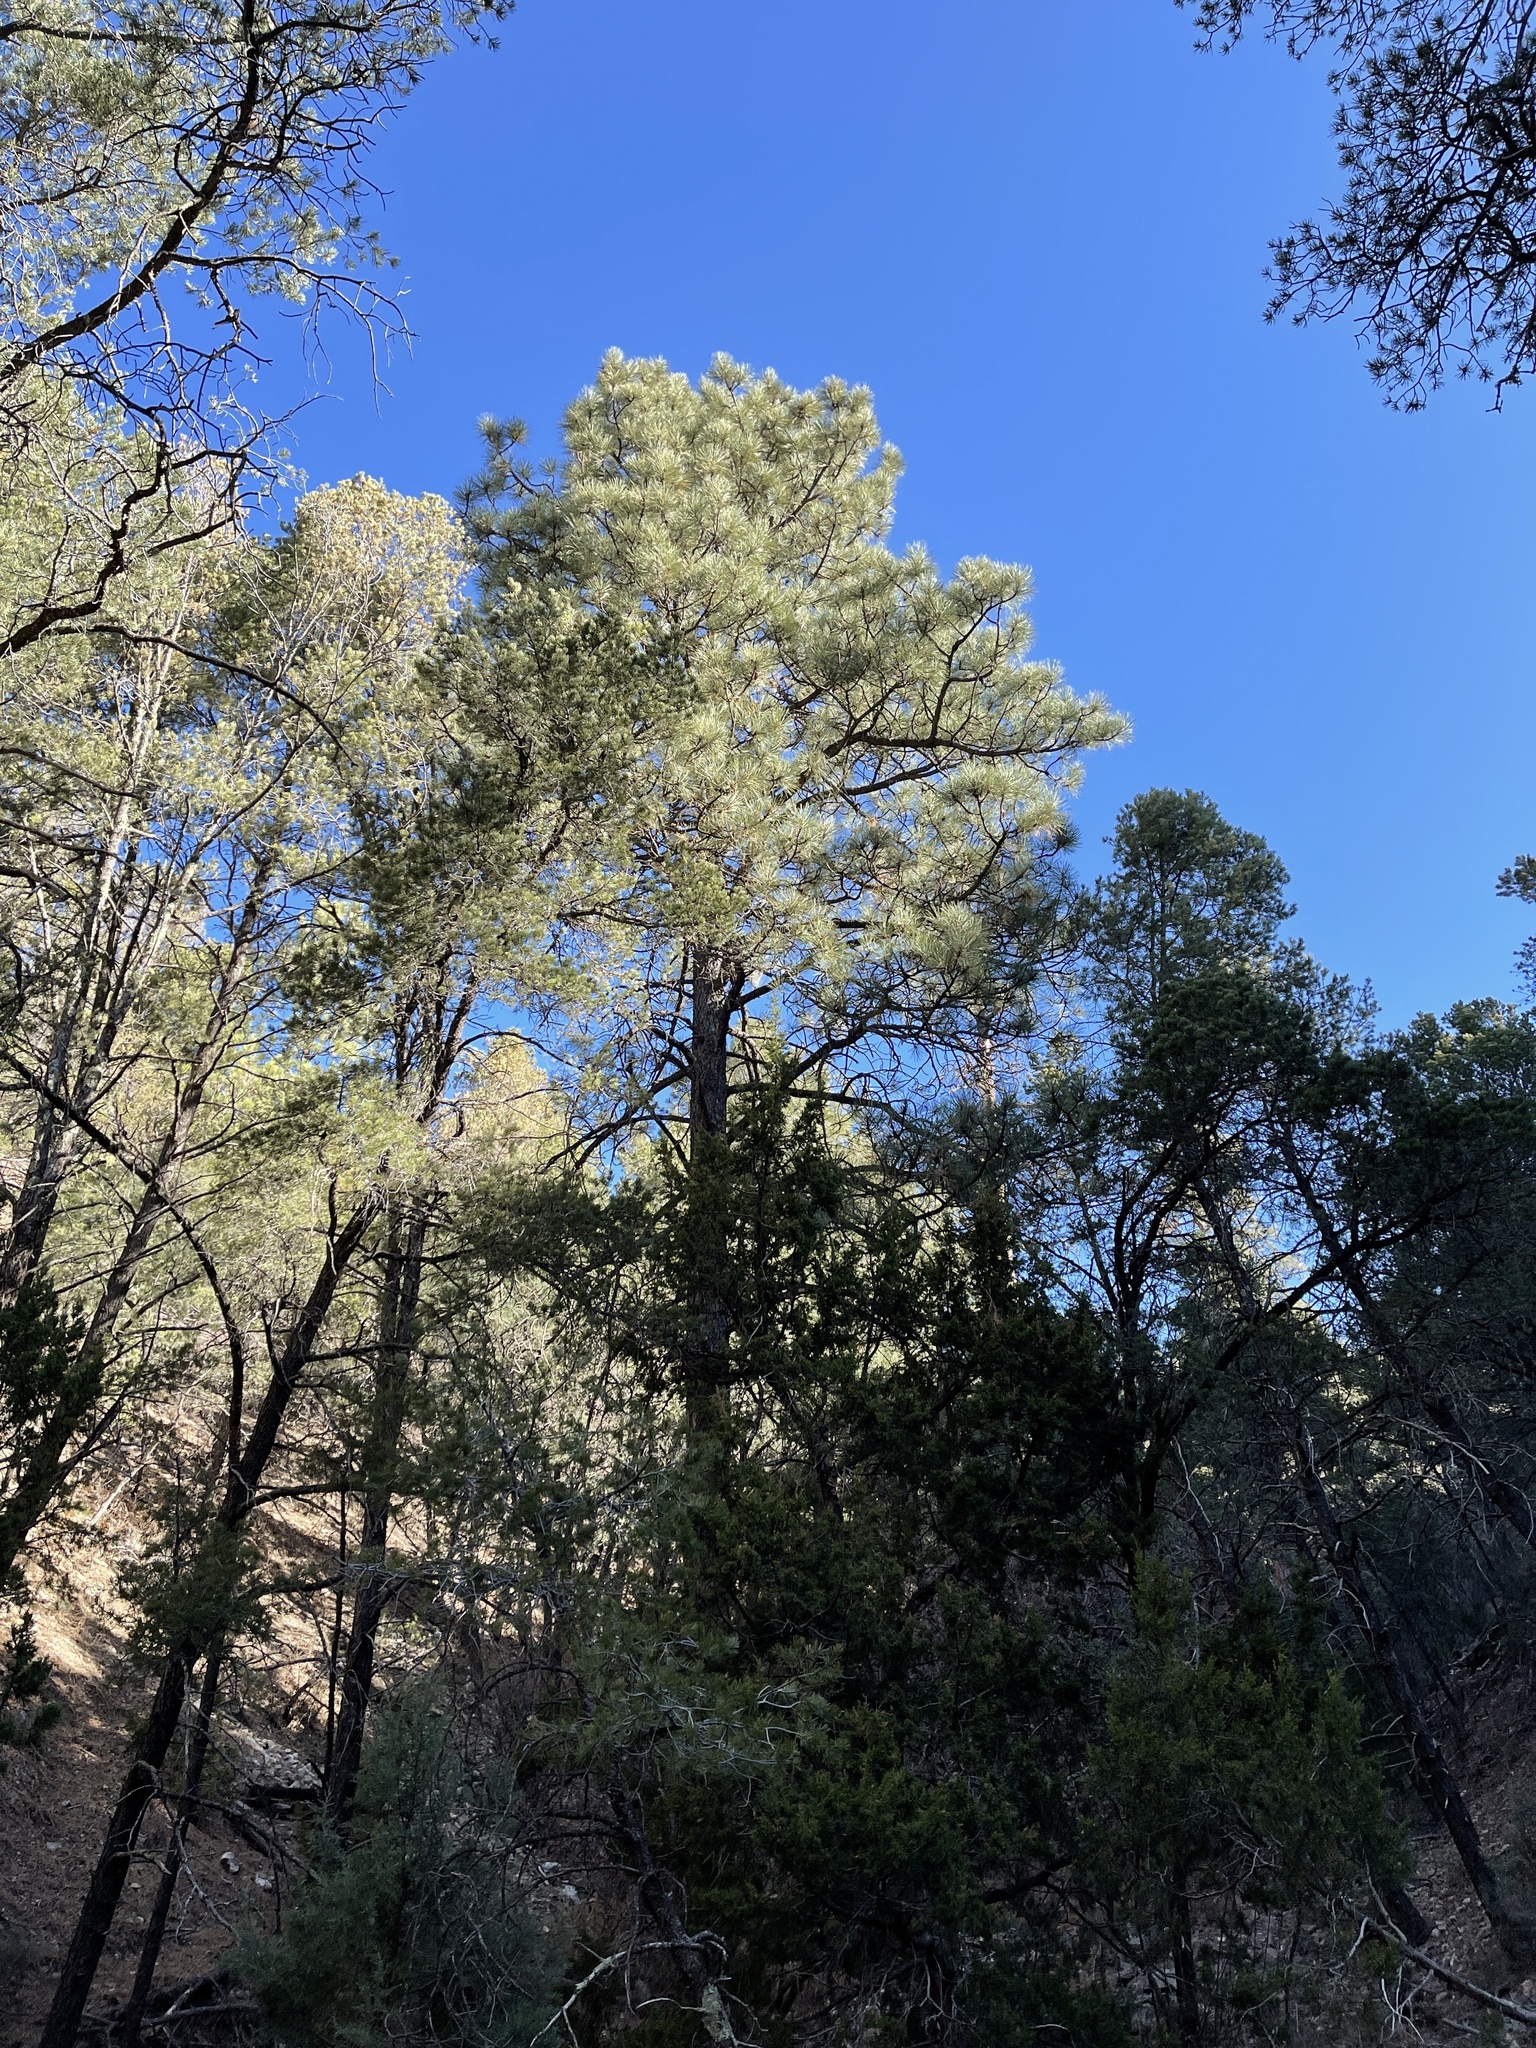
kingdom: Plantae
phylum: Tracheophyta
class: Pinopsida
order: Pinales
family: Pinaceae
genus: Pinus
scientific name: Pinus ponderosa
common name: Western yellow-pine
